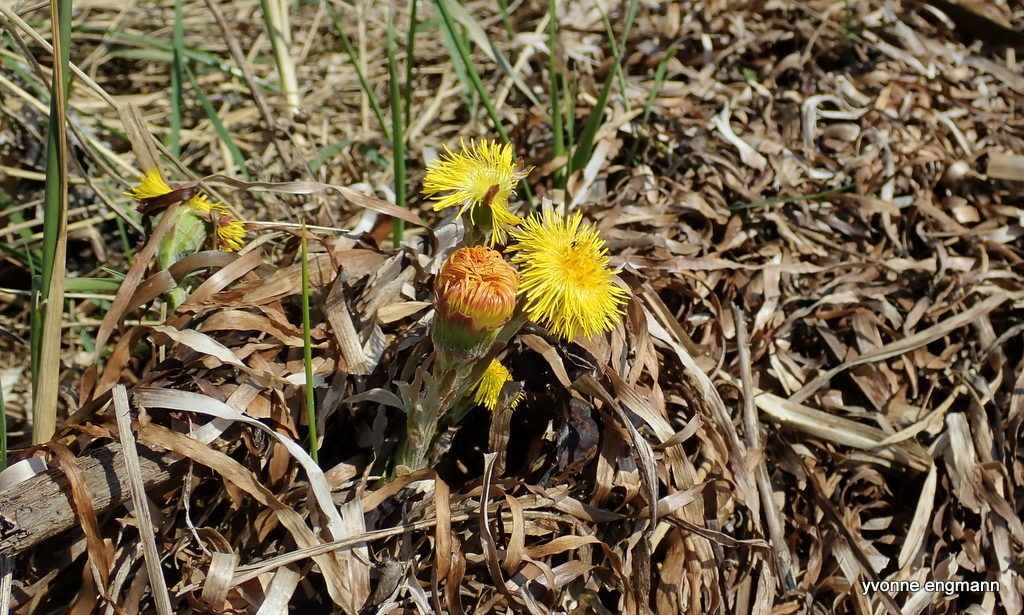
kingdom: Plantae
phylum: Tracheophyta
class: Magnoliopsida
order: Asterales
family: Asteraceae
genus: Tussilago
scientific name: Tussilago farfara
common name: Coltsfoot
